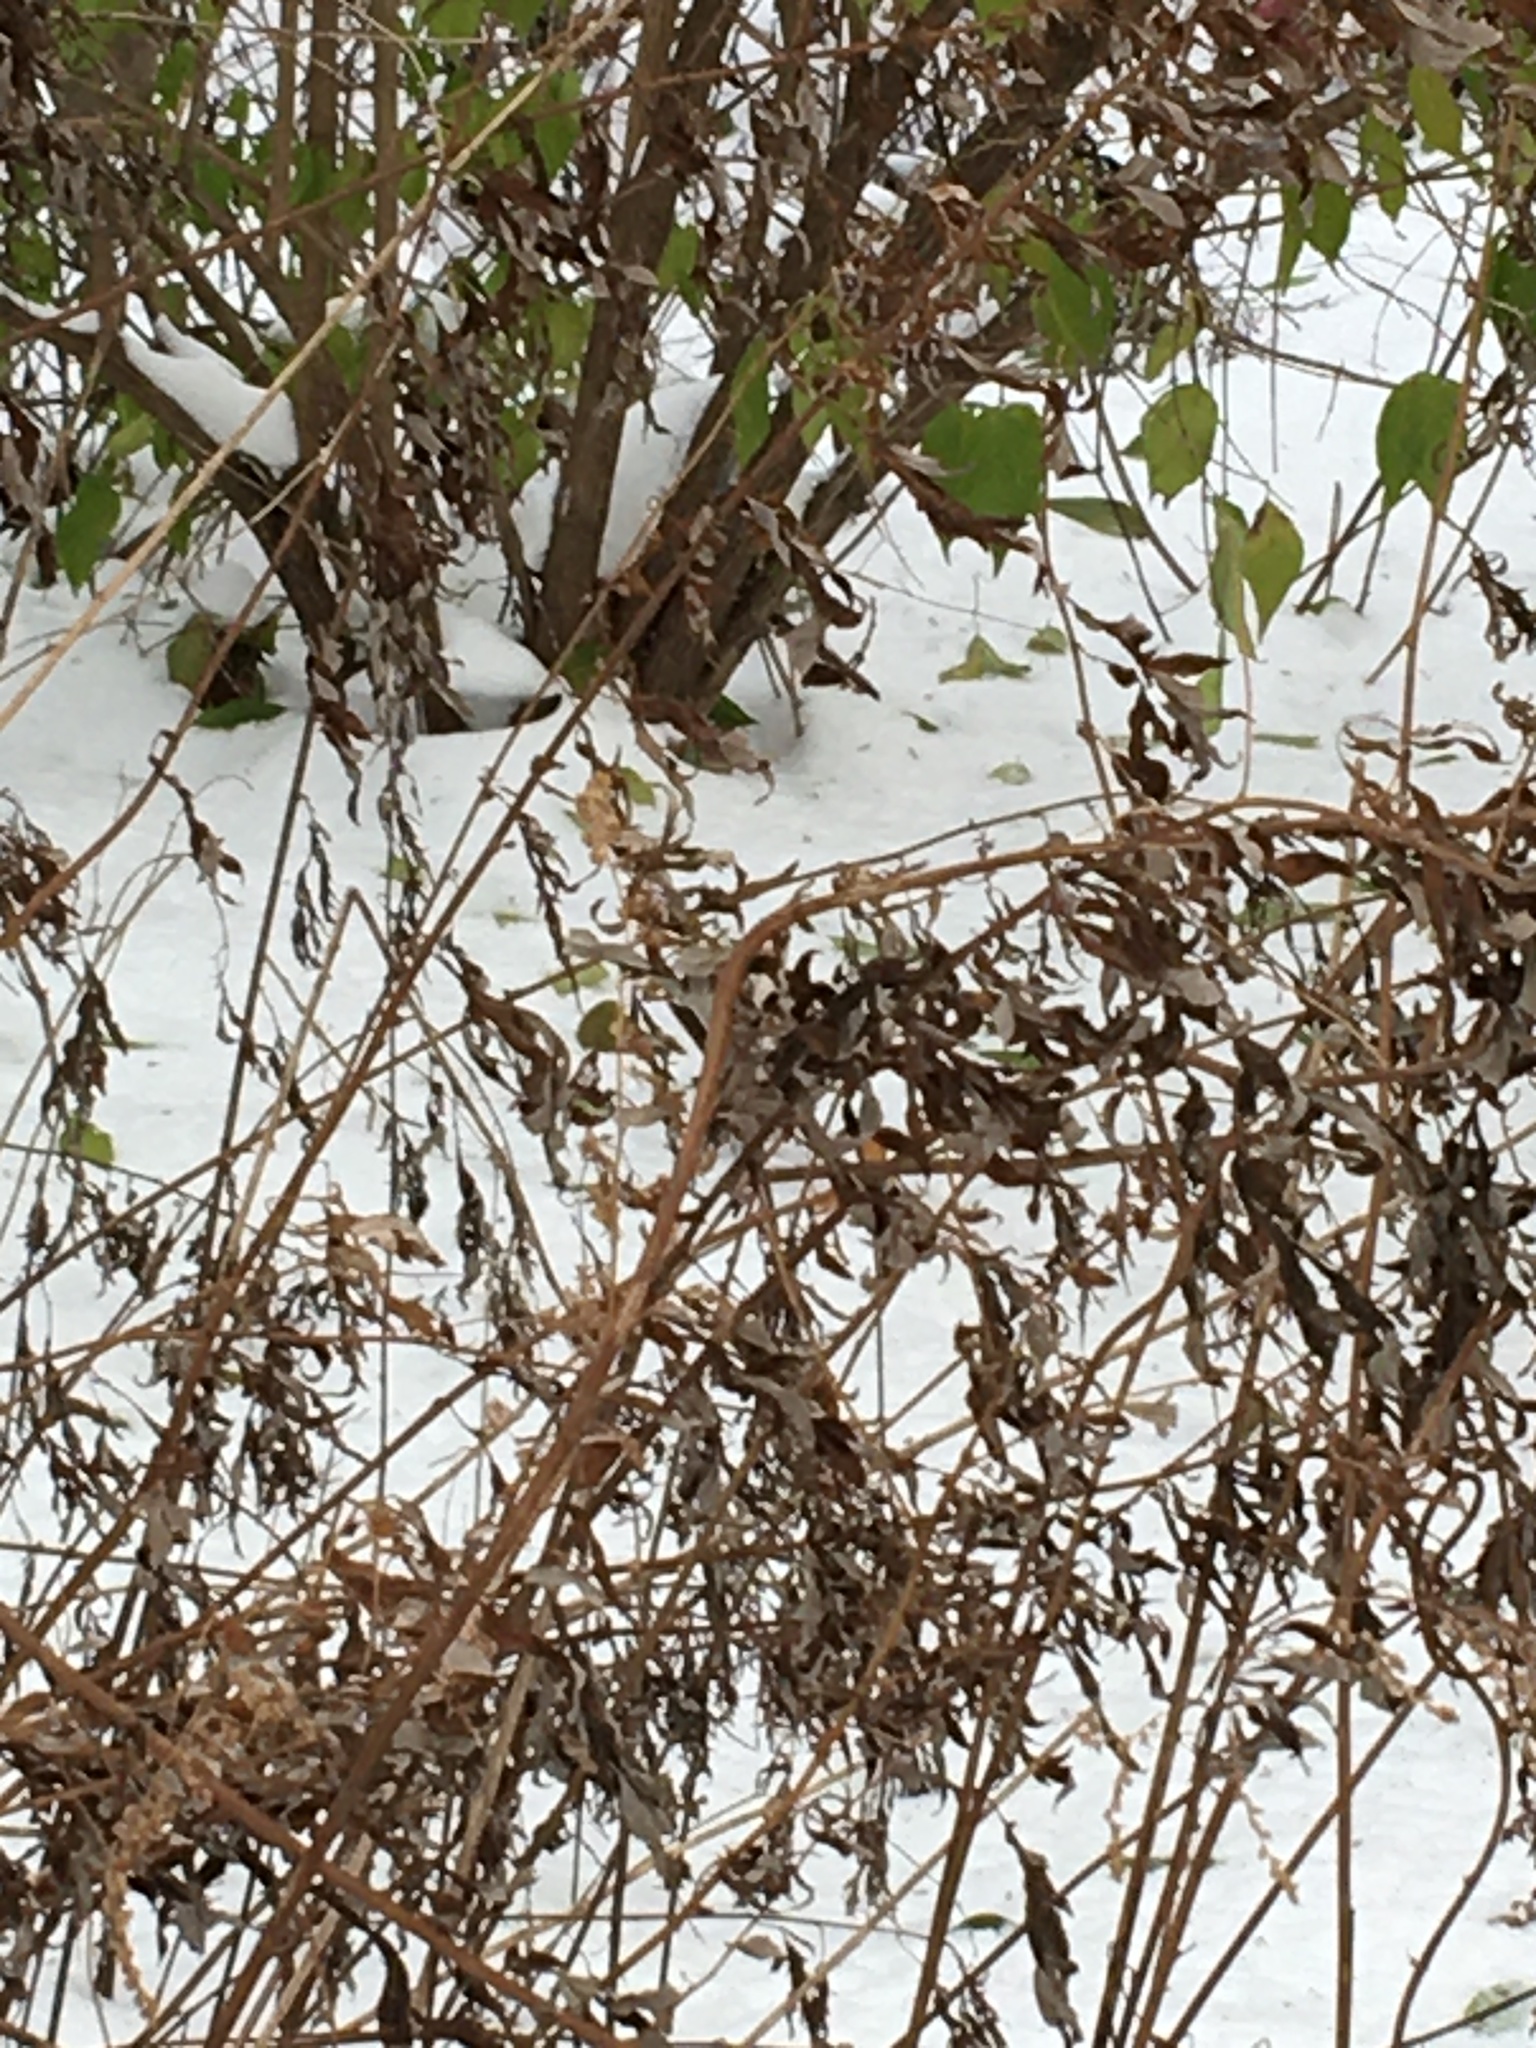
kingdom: Plantae
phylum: Tracheophyta
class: Magnoliopsida
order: Asterales
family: Asteraceae
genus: Artemisia
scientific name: Artemisia vulgaris
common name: Mugwort
